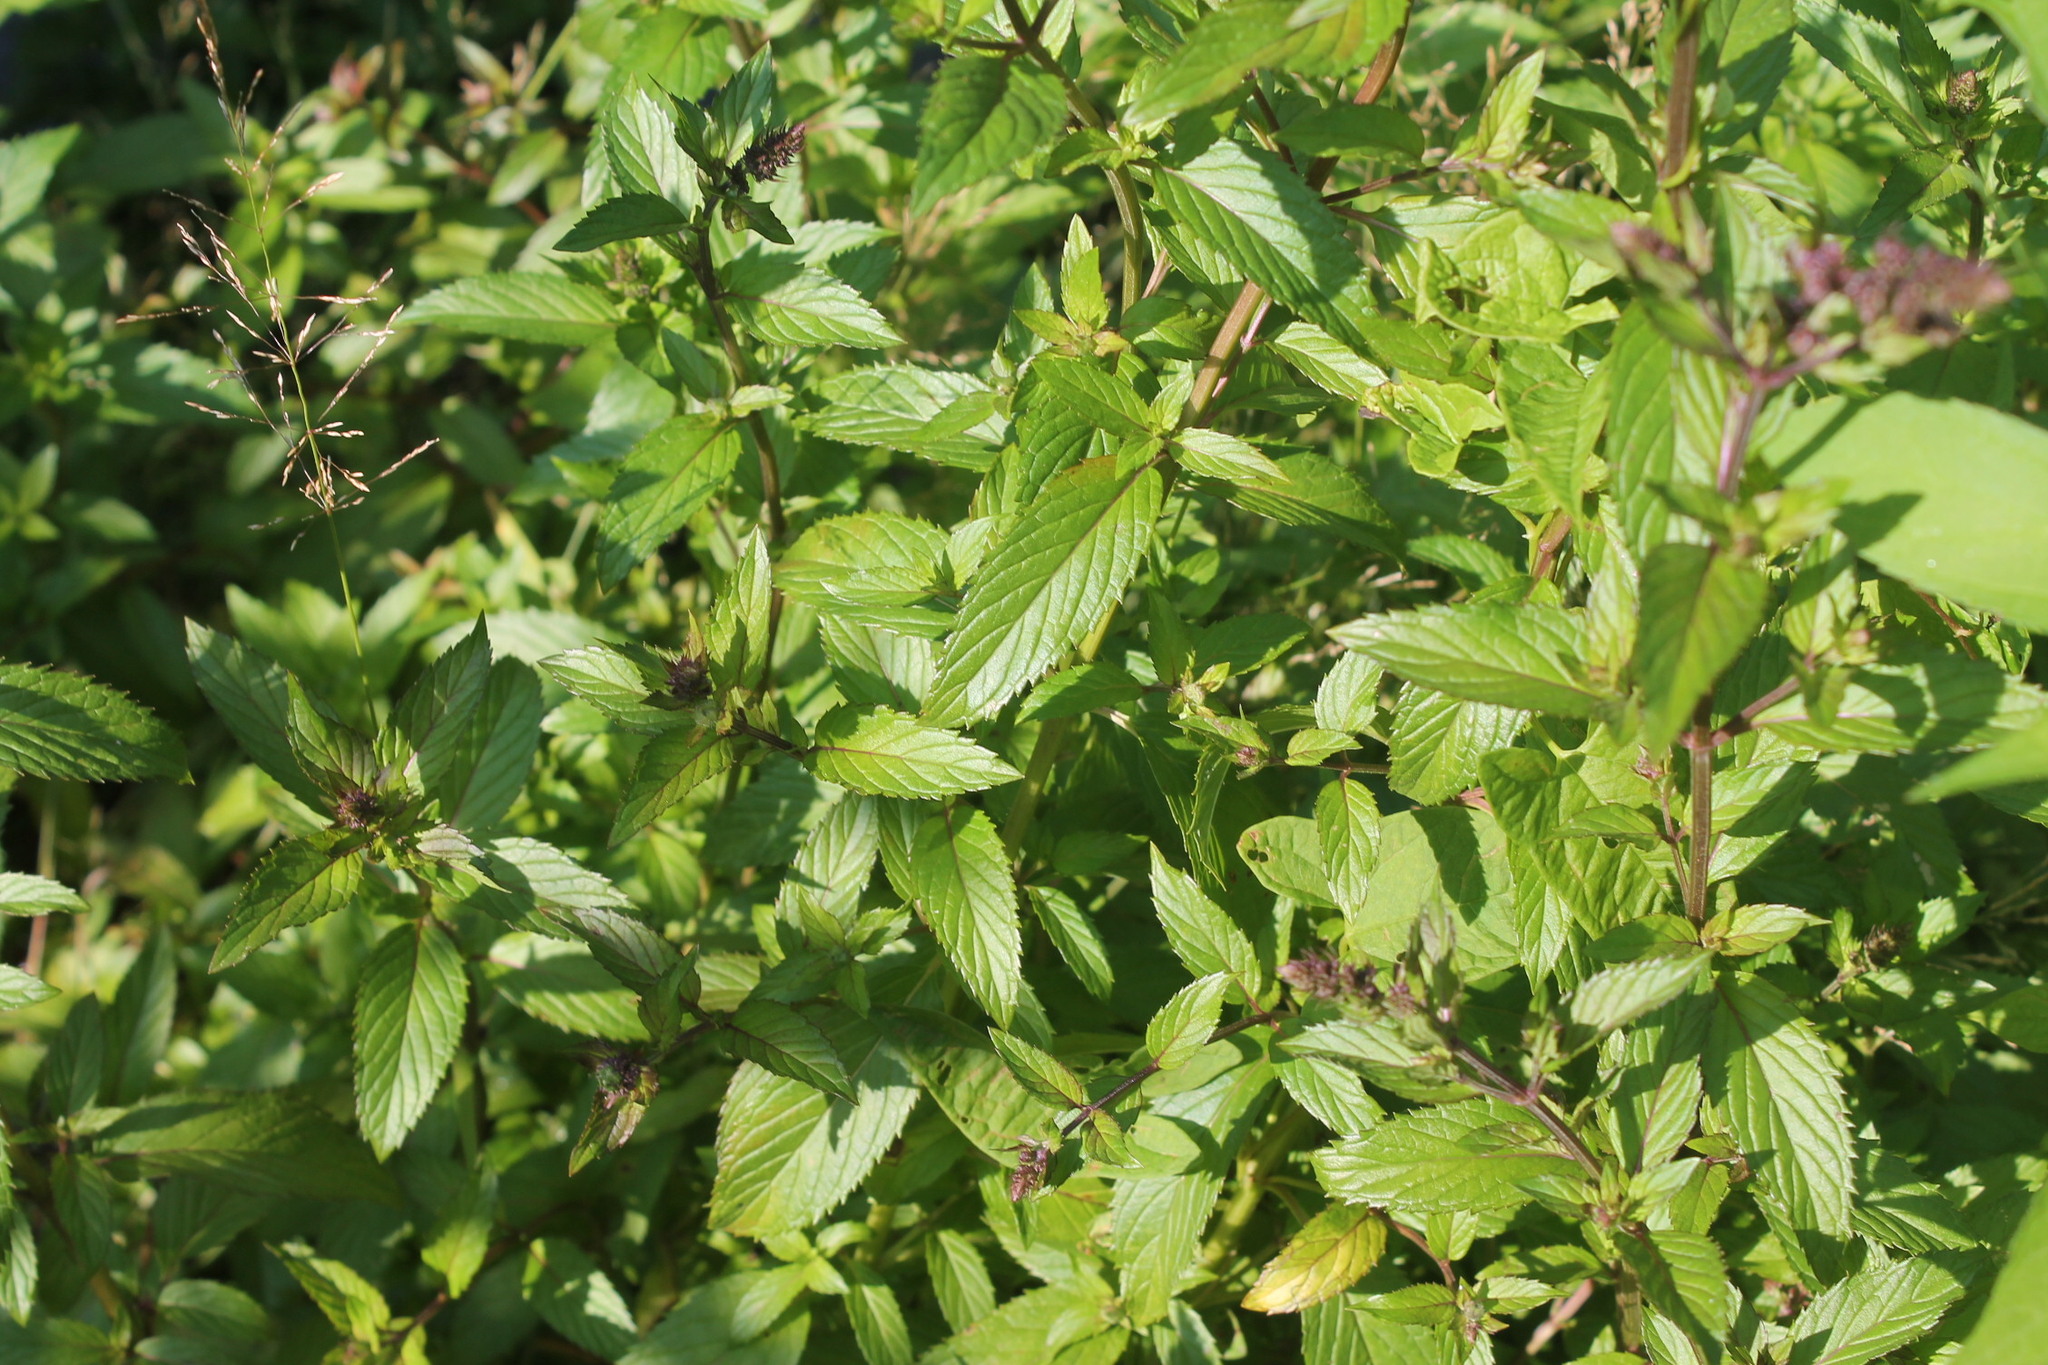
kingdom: Plantae
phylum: Tracheophyta
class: Magnoliopsida
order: Lamiales
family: Lamiaceae
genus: Mentha
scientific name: Mentha spicata
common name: Spearmint
